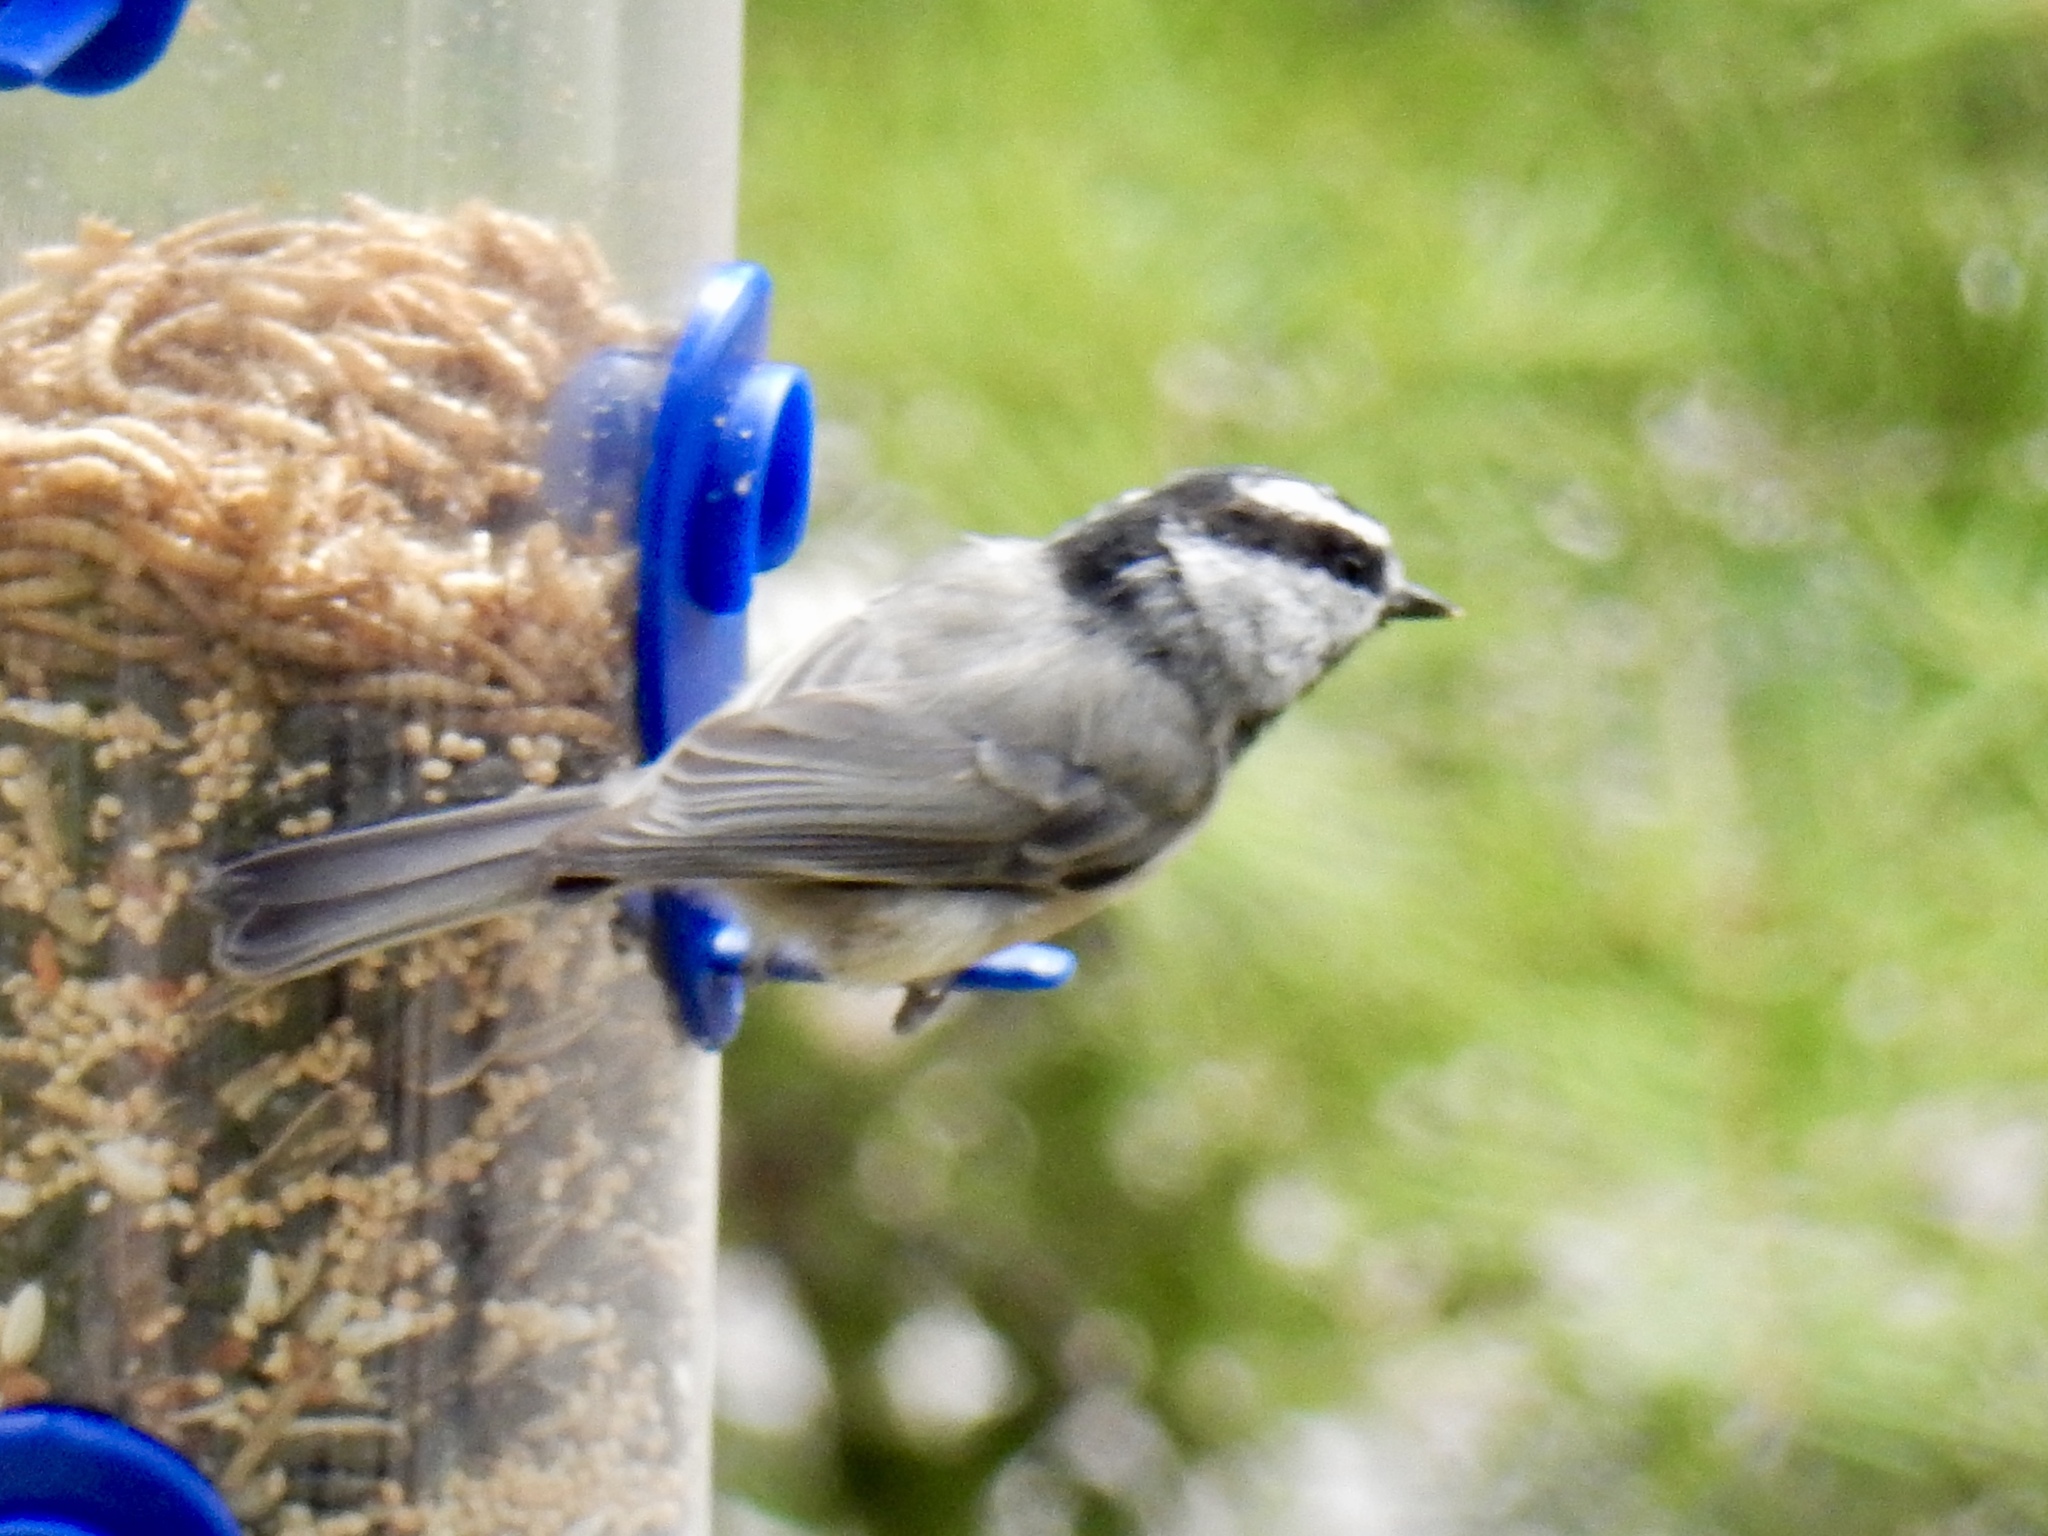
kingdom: Animalia
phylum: Chordata
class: Aves
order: Passeriformes
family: Paridae
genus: Poecile
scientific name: Poecile gambeli
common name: Mountain chickadee
